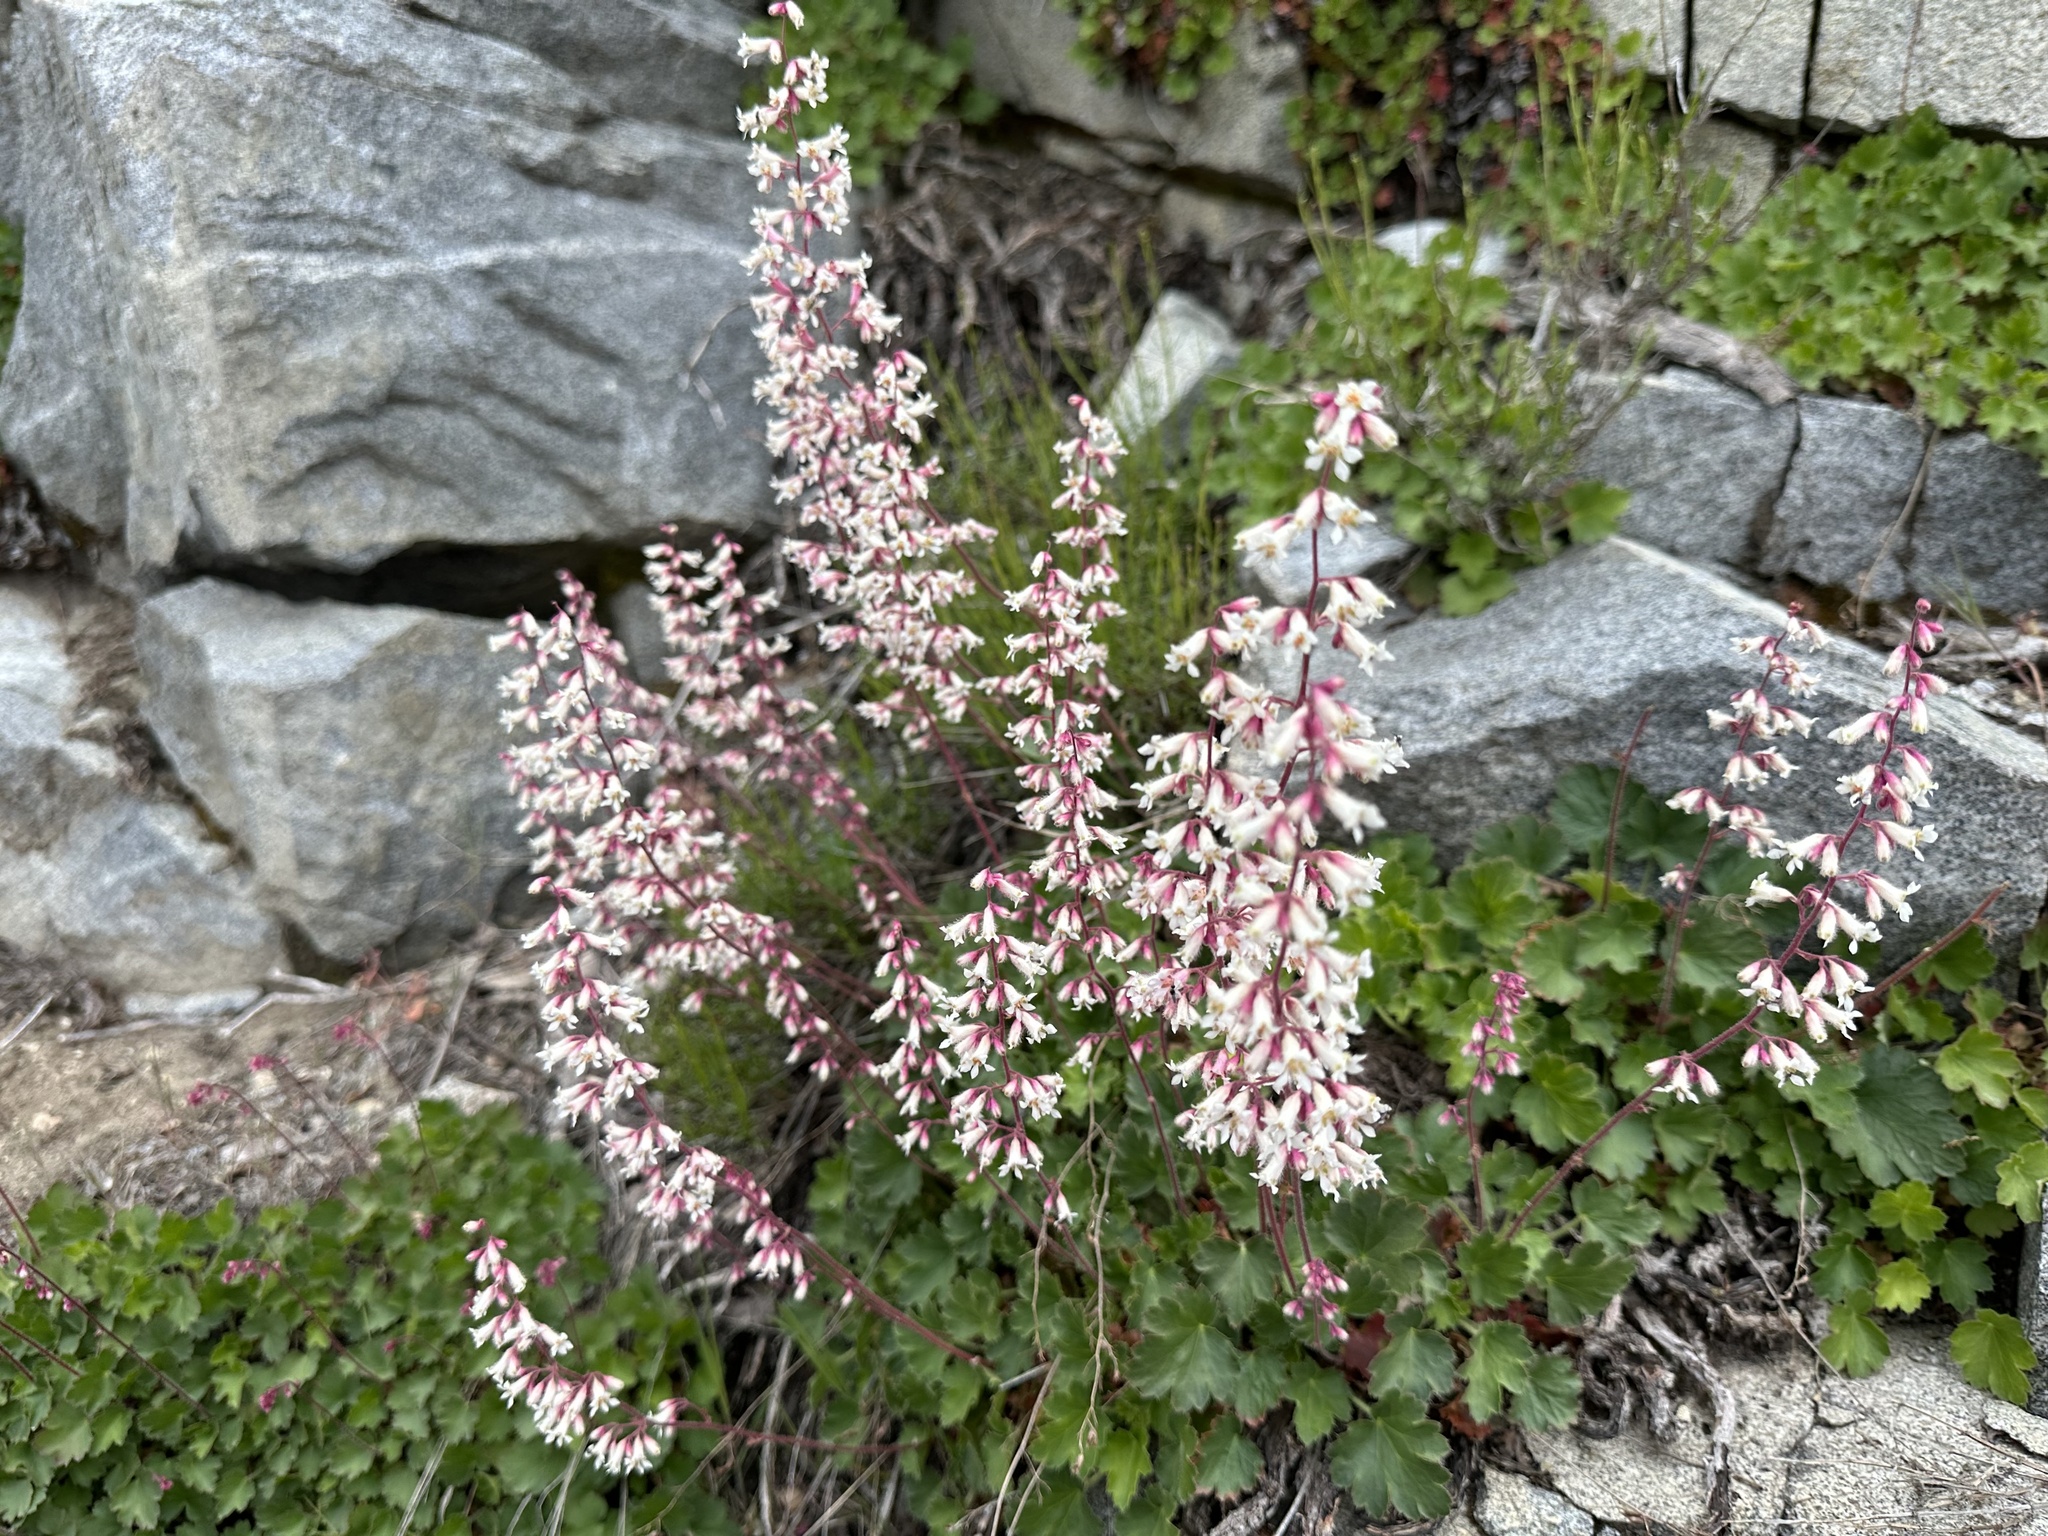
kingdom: Plantae
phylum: Tracheophyta
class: Magnoliopsida
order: Saxifragales
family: Saxifragaceae
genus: Heuchera
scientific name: Heuchera elegans
